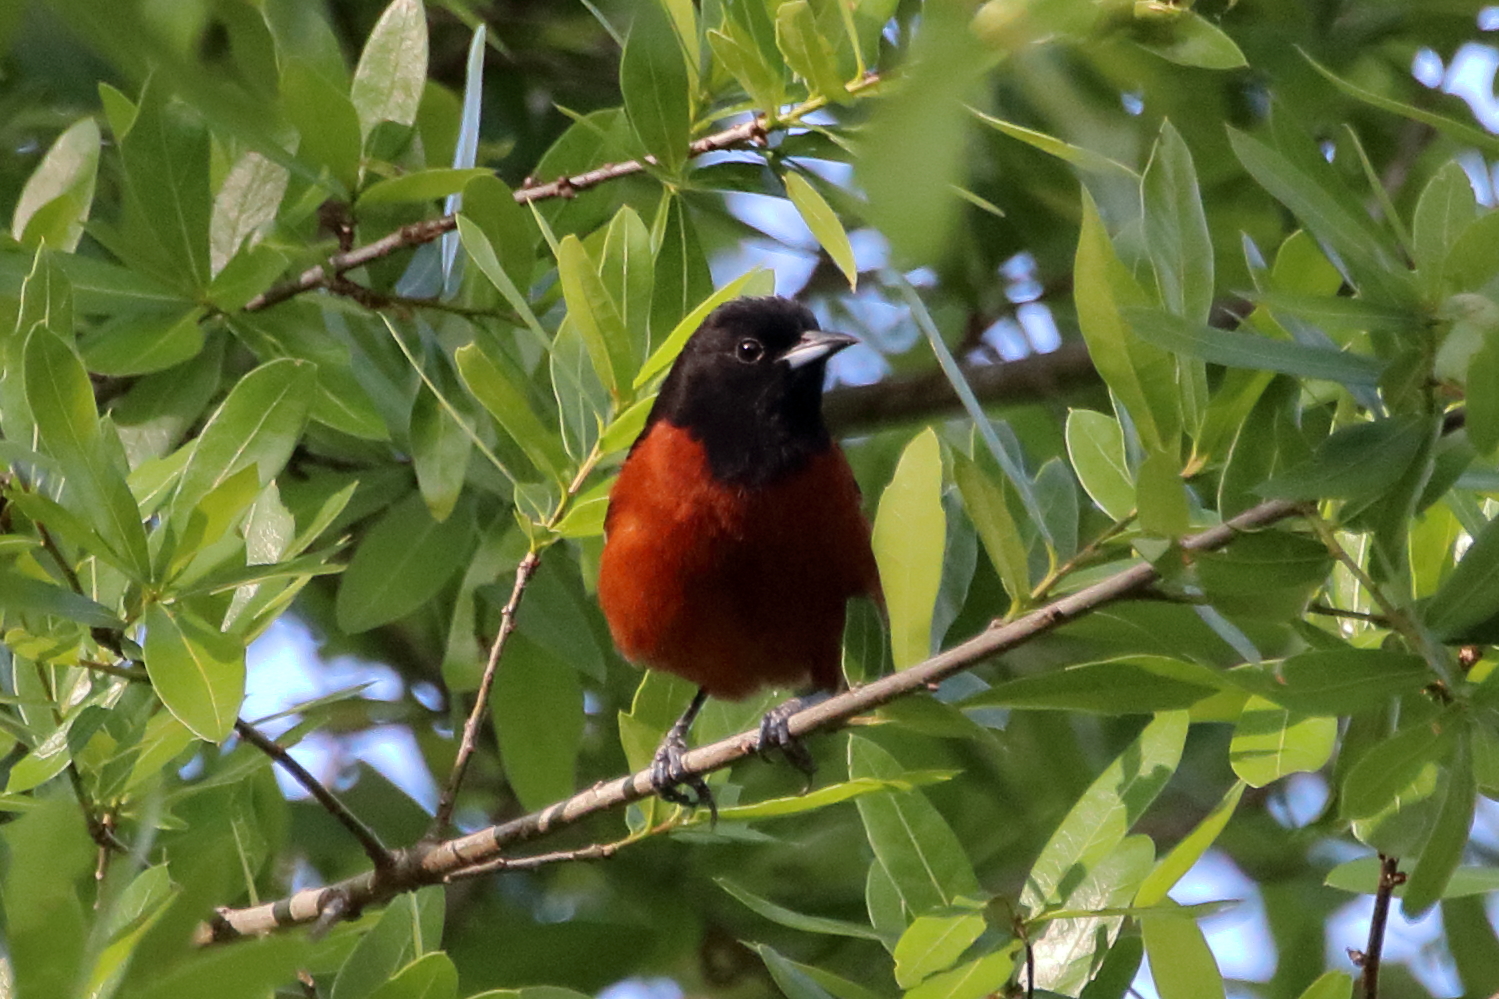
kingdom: Animalia
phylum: Chordata
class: Aves
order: Passeriformes
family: Icteridae
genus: Icterus
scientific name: Icterus spurius
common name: Orchard oriole
